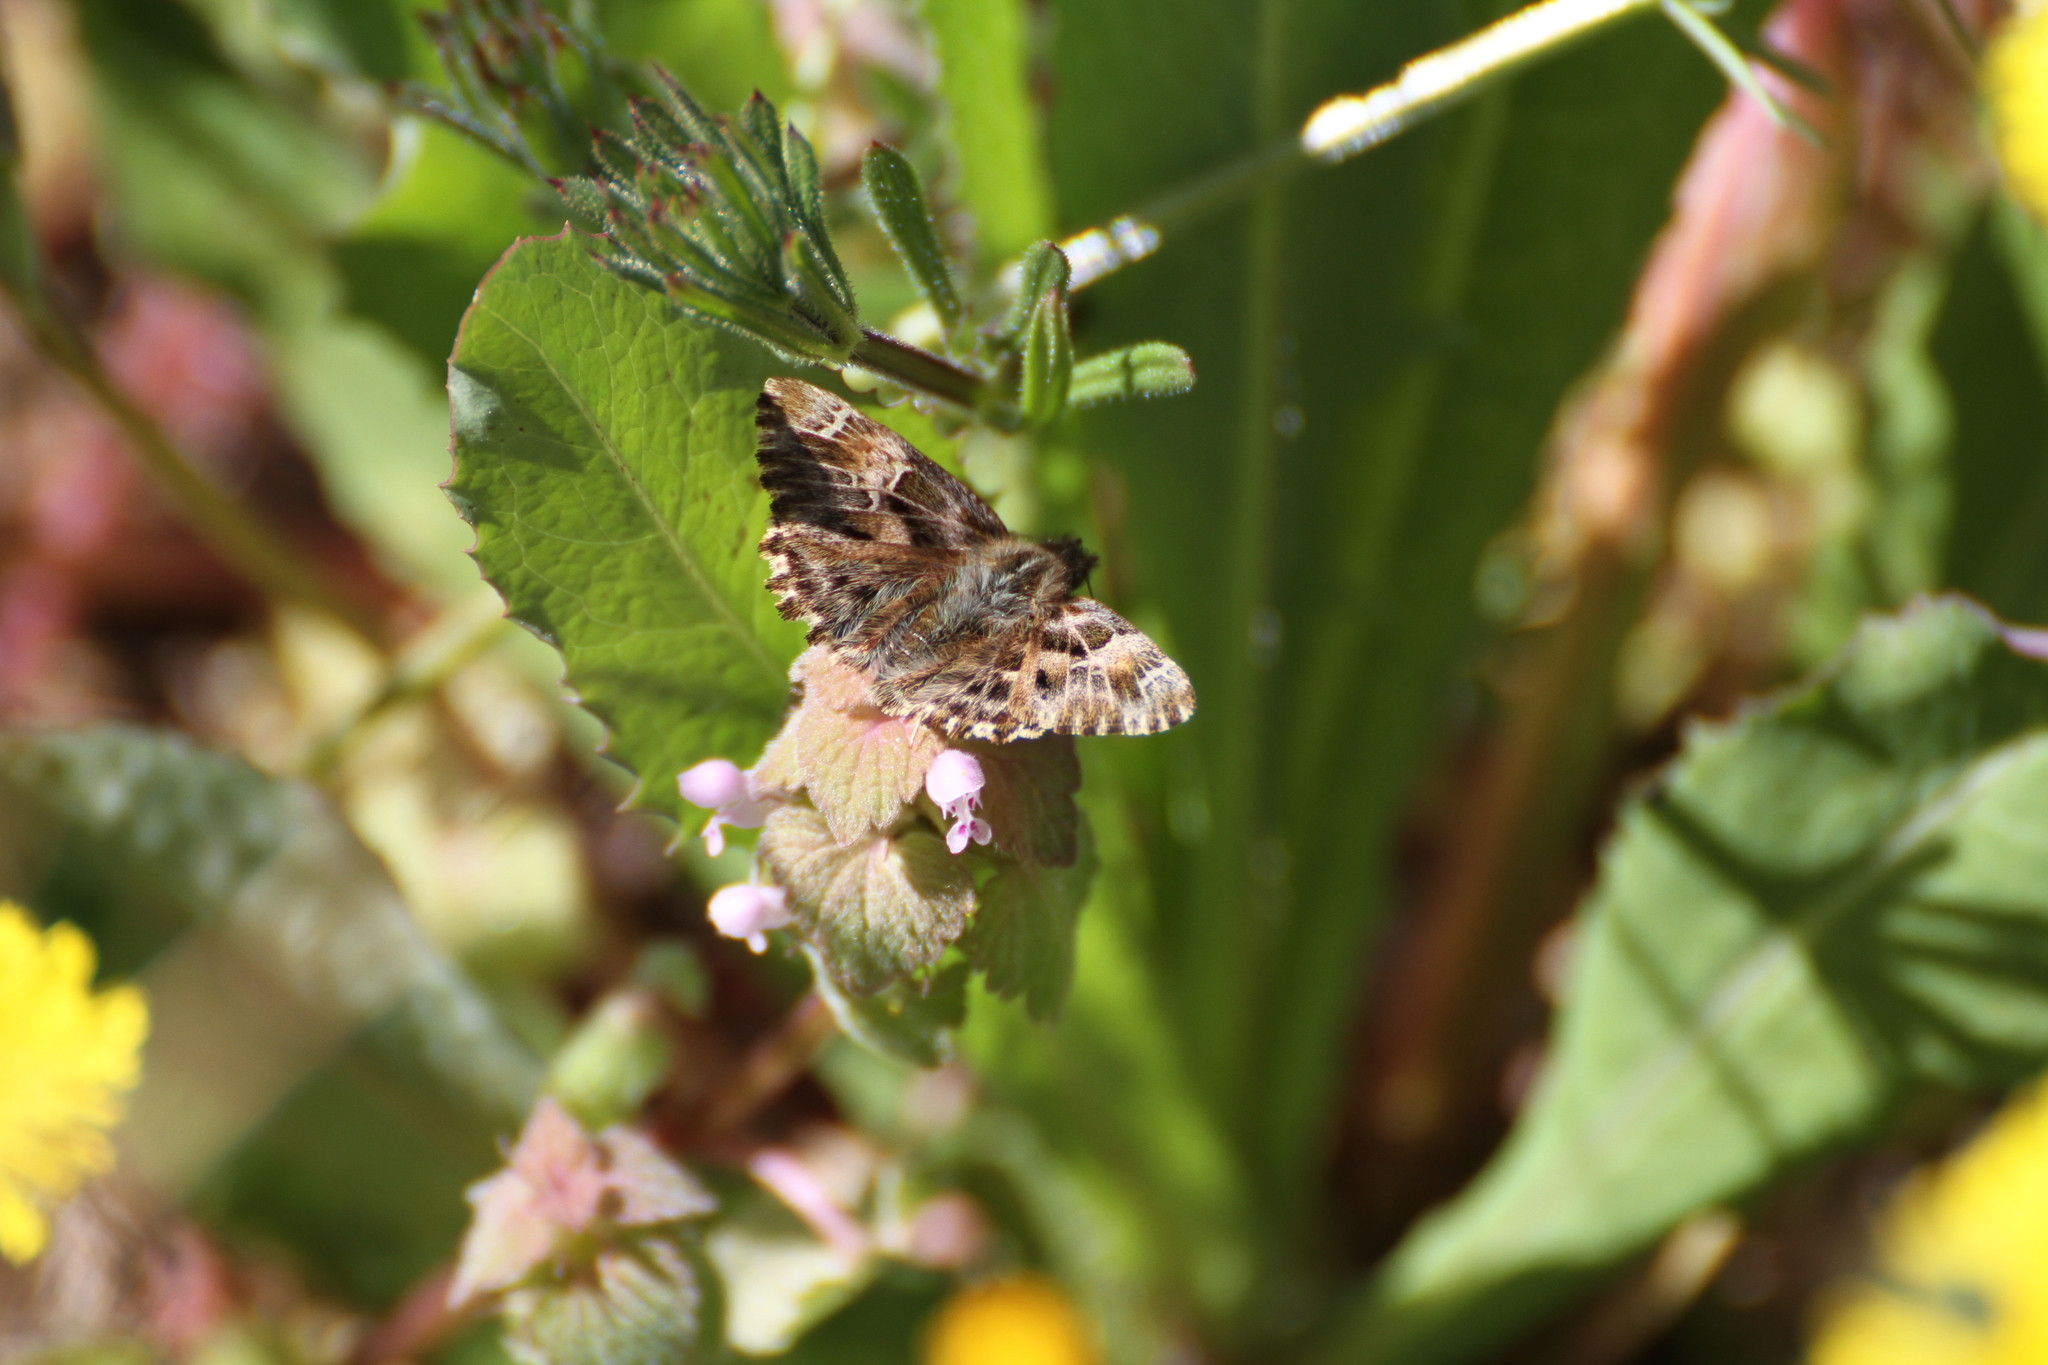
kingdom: Animalia
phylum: Arthropoda
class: Insecta
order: Lepidoptera
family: Hesperiidae
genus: Carcharodus
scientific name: Carcharodus alceae
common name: Mallow skipper
